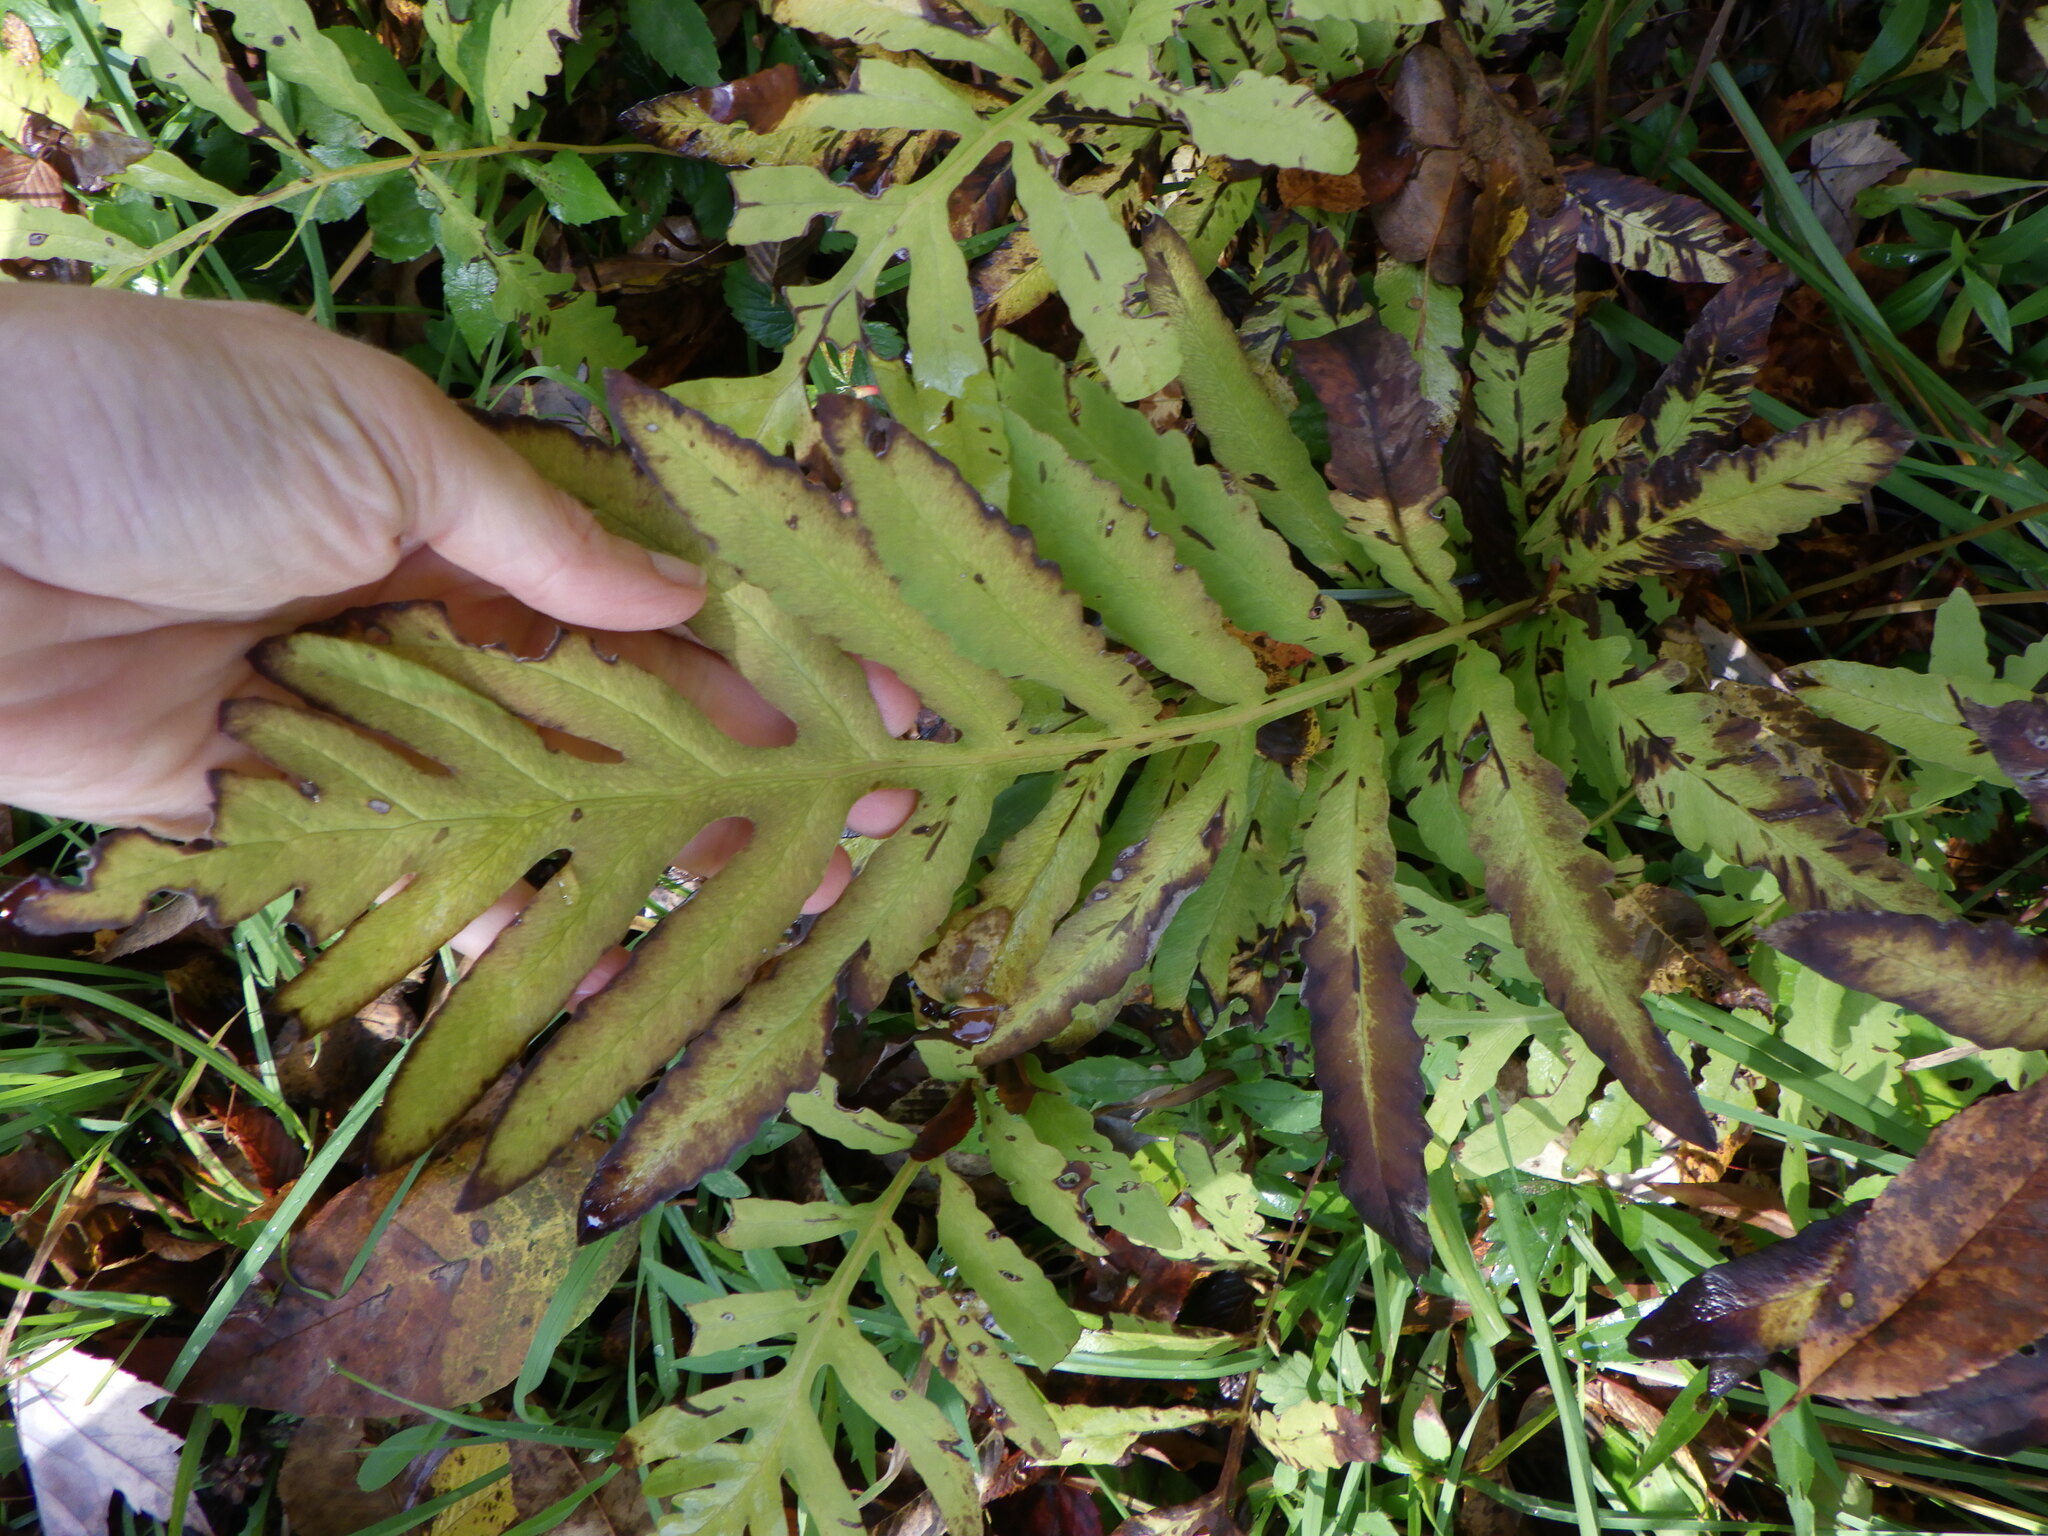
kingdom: Plantae
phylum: Tracheophyta
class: Polypodiopsida
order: Polypodiales
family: Onocleaceae
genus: Onoclea
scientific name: Onoclea sensibilis
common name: Sensitive fern
